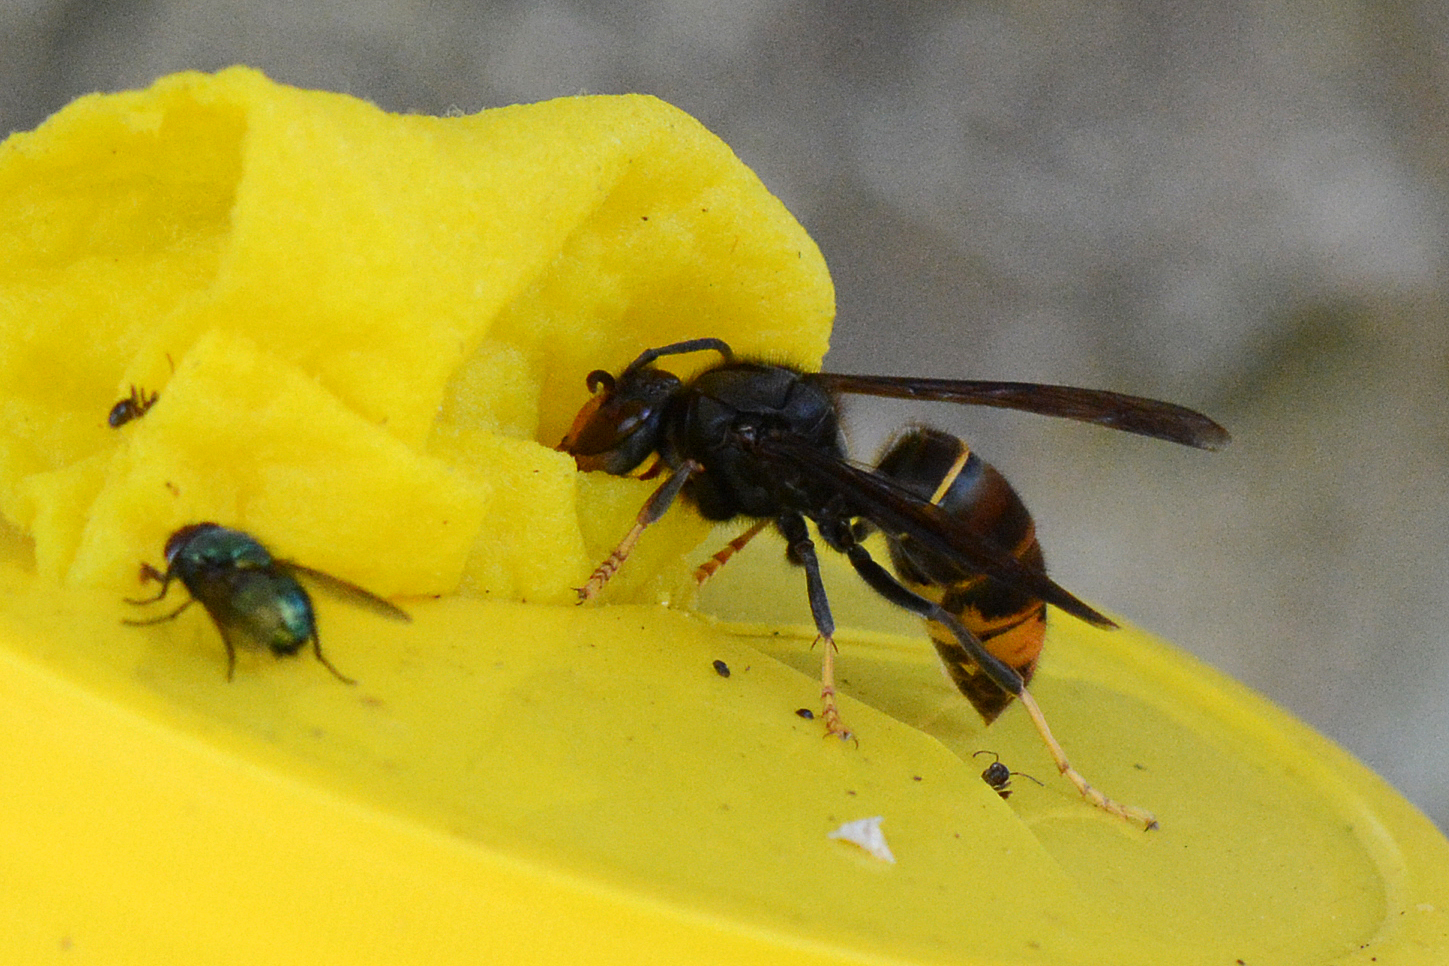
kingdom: Animalia
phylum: Arthropoda
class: Insecta
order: Hymenoptera
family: Vespidae
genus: Vespa
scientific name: Vespa velutina
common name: Asian hornet
